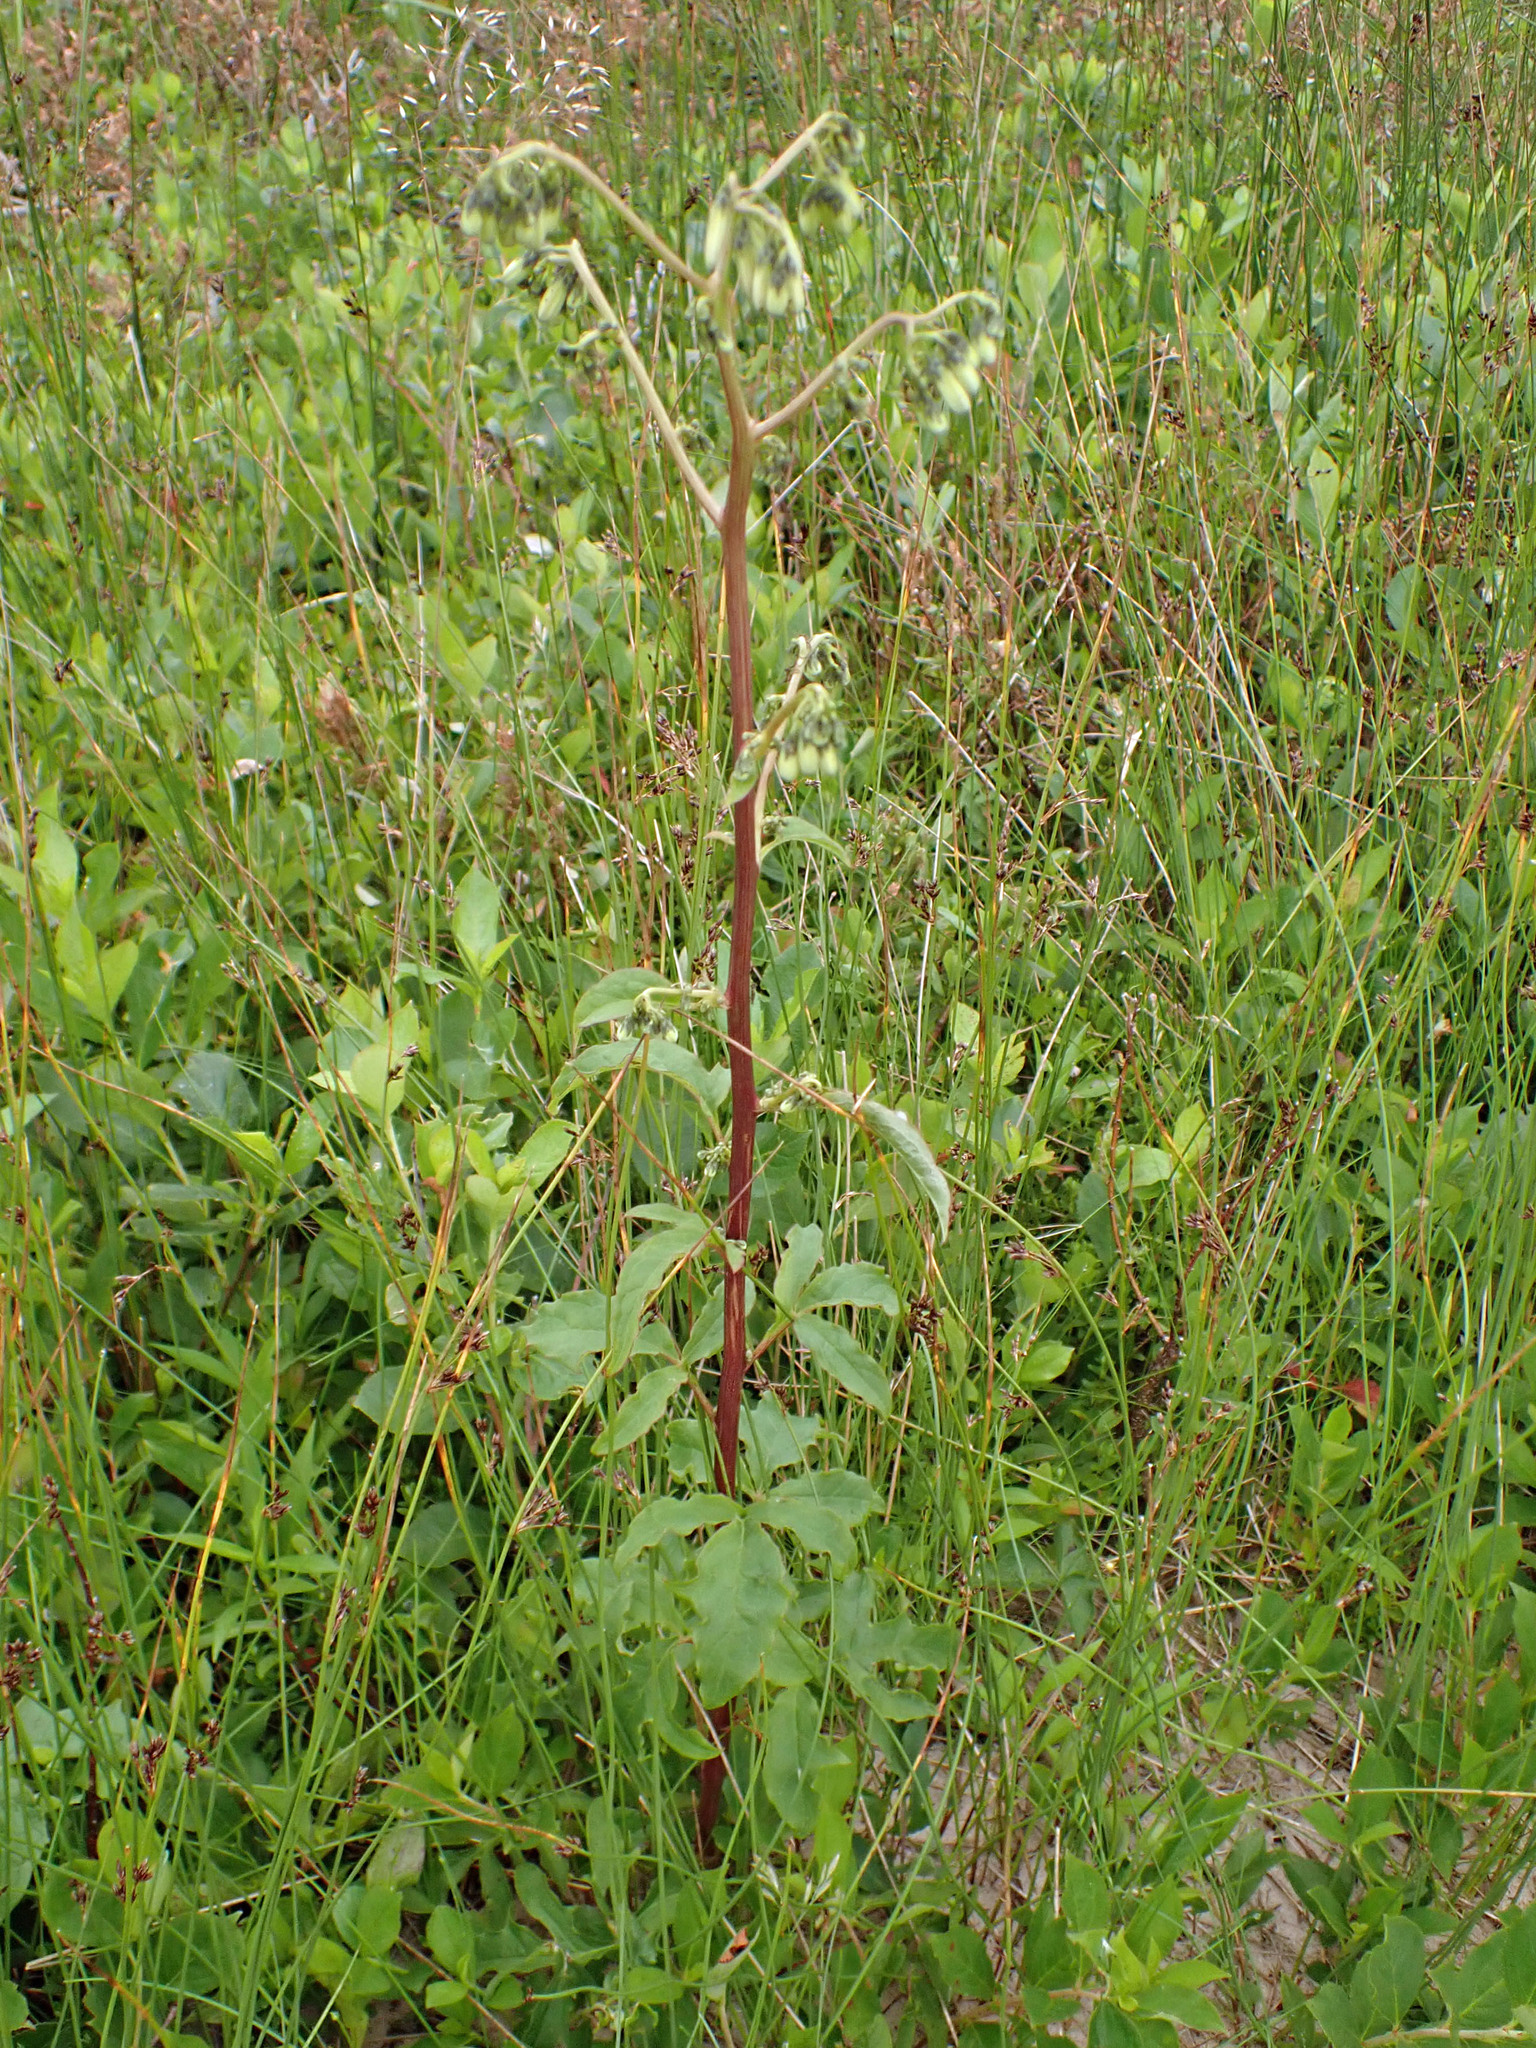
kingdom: Plantae
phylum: Tracheophyta
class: Magnoliopsida
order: Asterales
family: Asteraceae
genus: Nabalus
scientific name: Nabalus trifoliolatus
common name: Gall-of-the-earth
